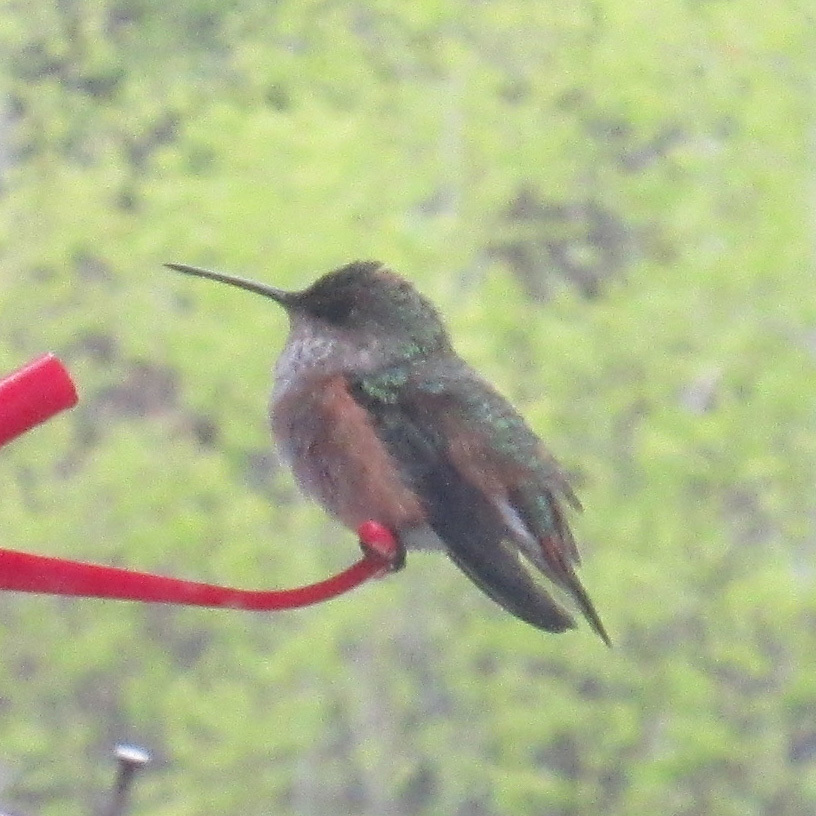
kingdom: Animalia
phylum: Chordata
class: Aves
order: Apodiformes
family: Trochilidae
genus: Selasphorus
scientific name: Selasphorus rufus
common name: Rufous hummingbird
